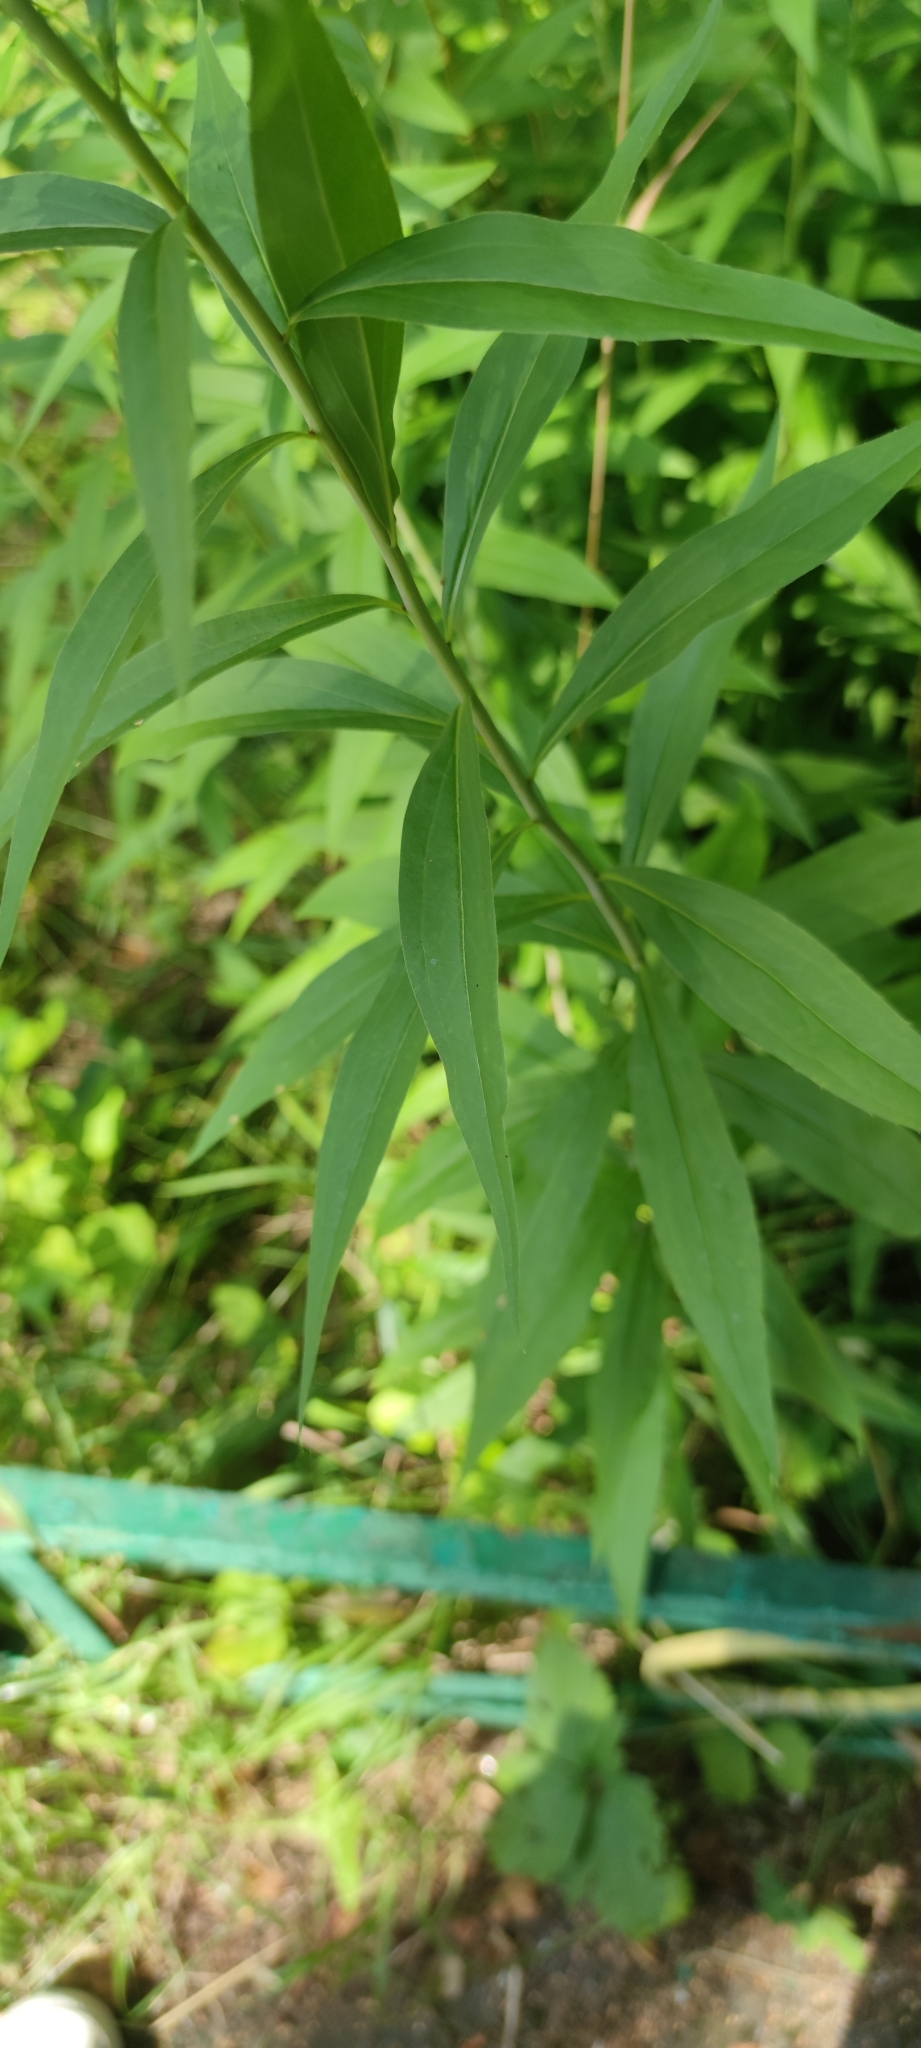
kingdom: Plantae
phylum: Tracheophyta
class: Magnoliopsida
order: Asterales
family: Asteraceae
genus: Solidago
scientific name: Solidago gigantea
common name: Giant goldenrod
